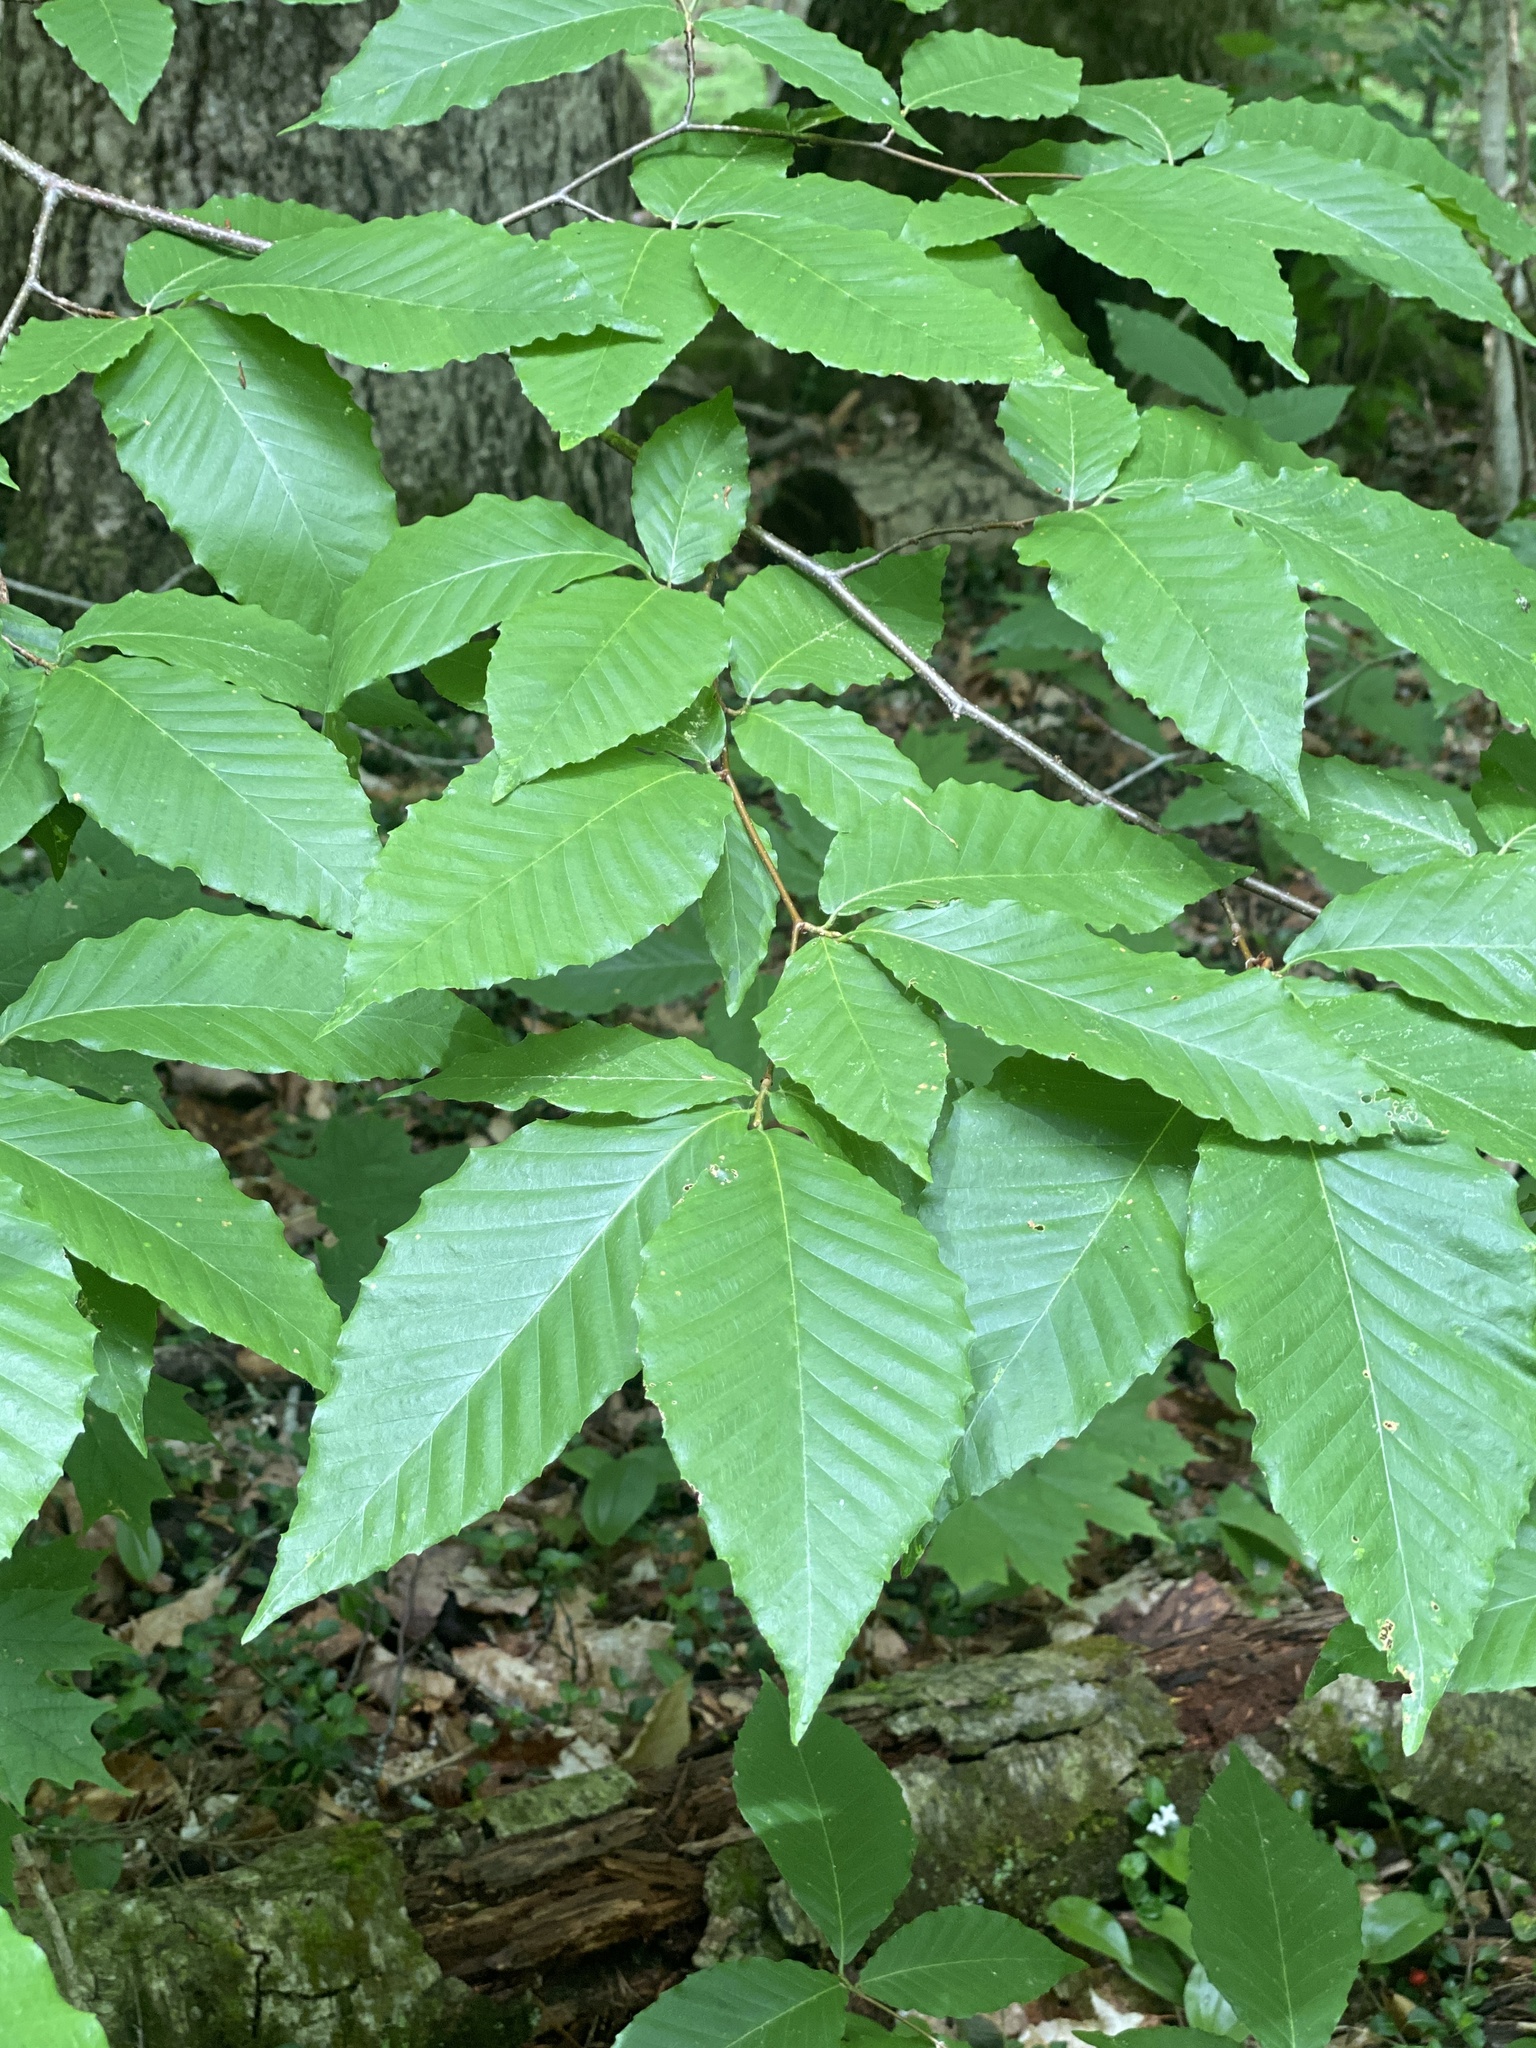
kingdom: Plantae
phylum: Tracheophyta
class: Magnoliopsida
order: Fagales
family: Fagaceae
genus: Fagus
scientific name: Fagus grandifolia
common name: American beech
